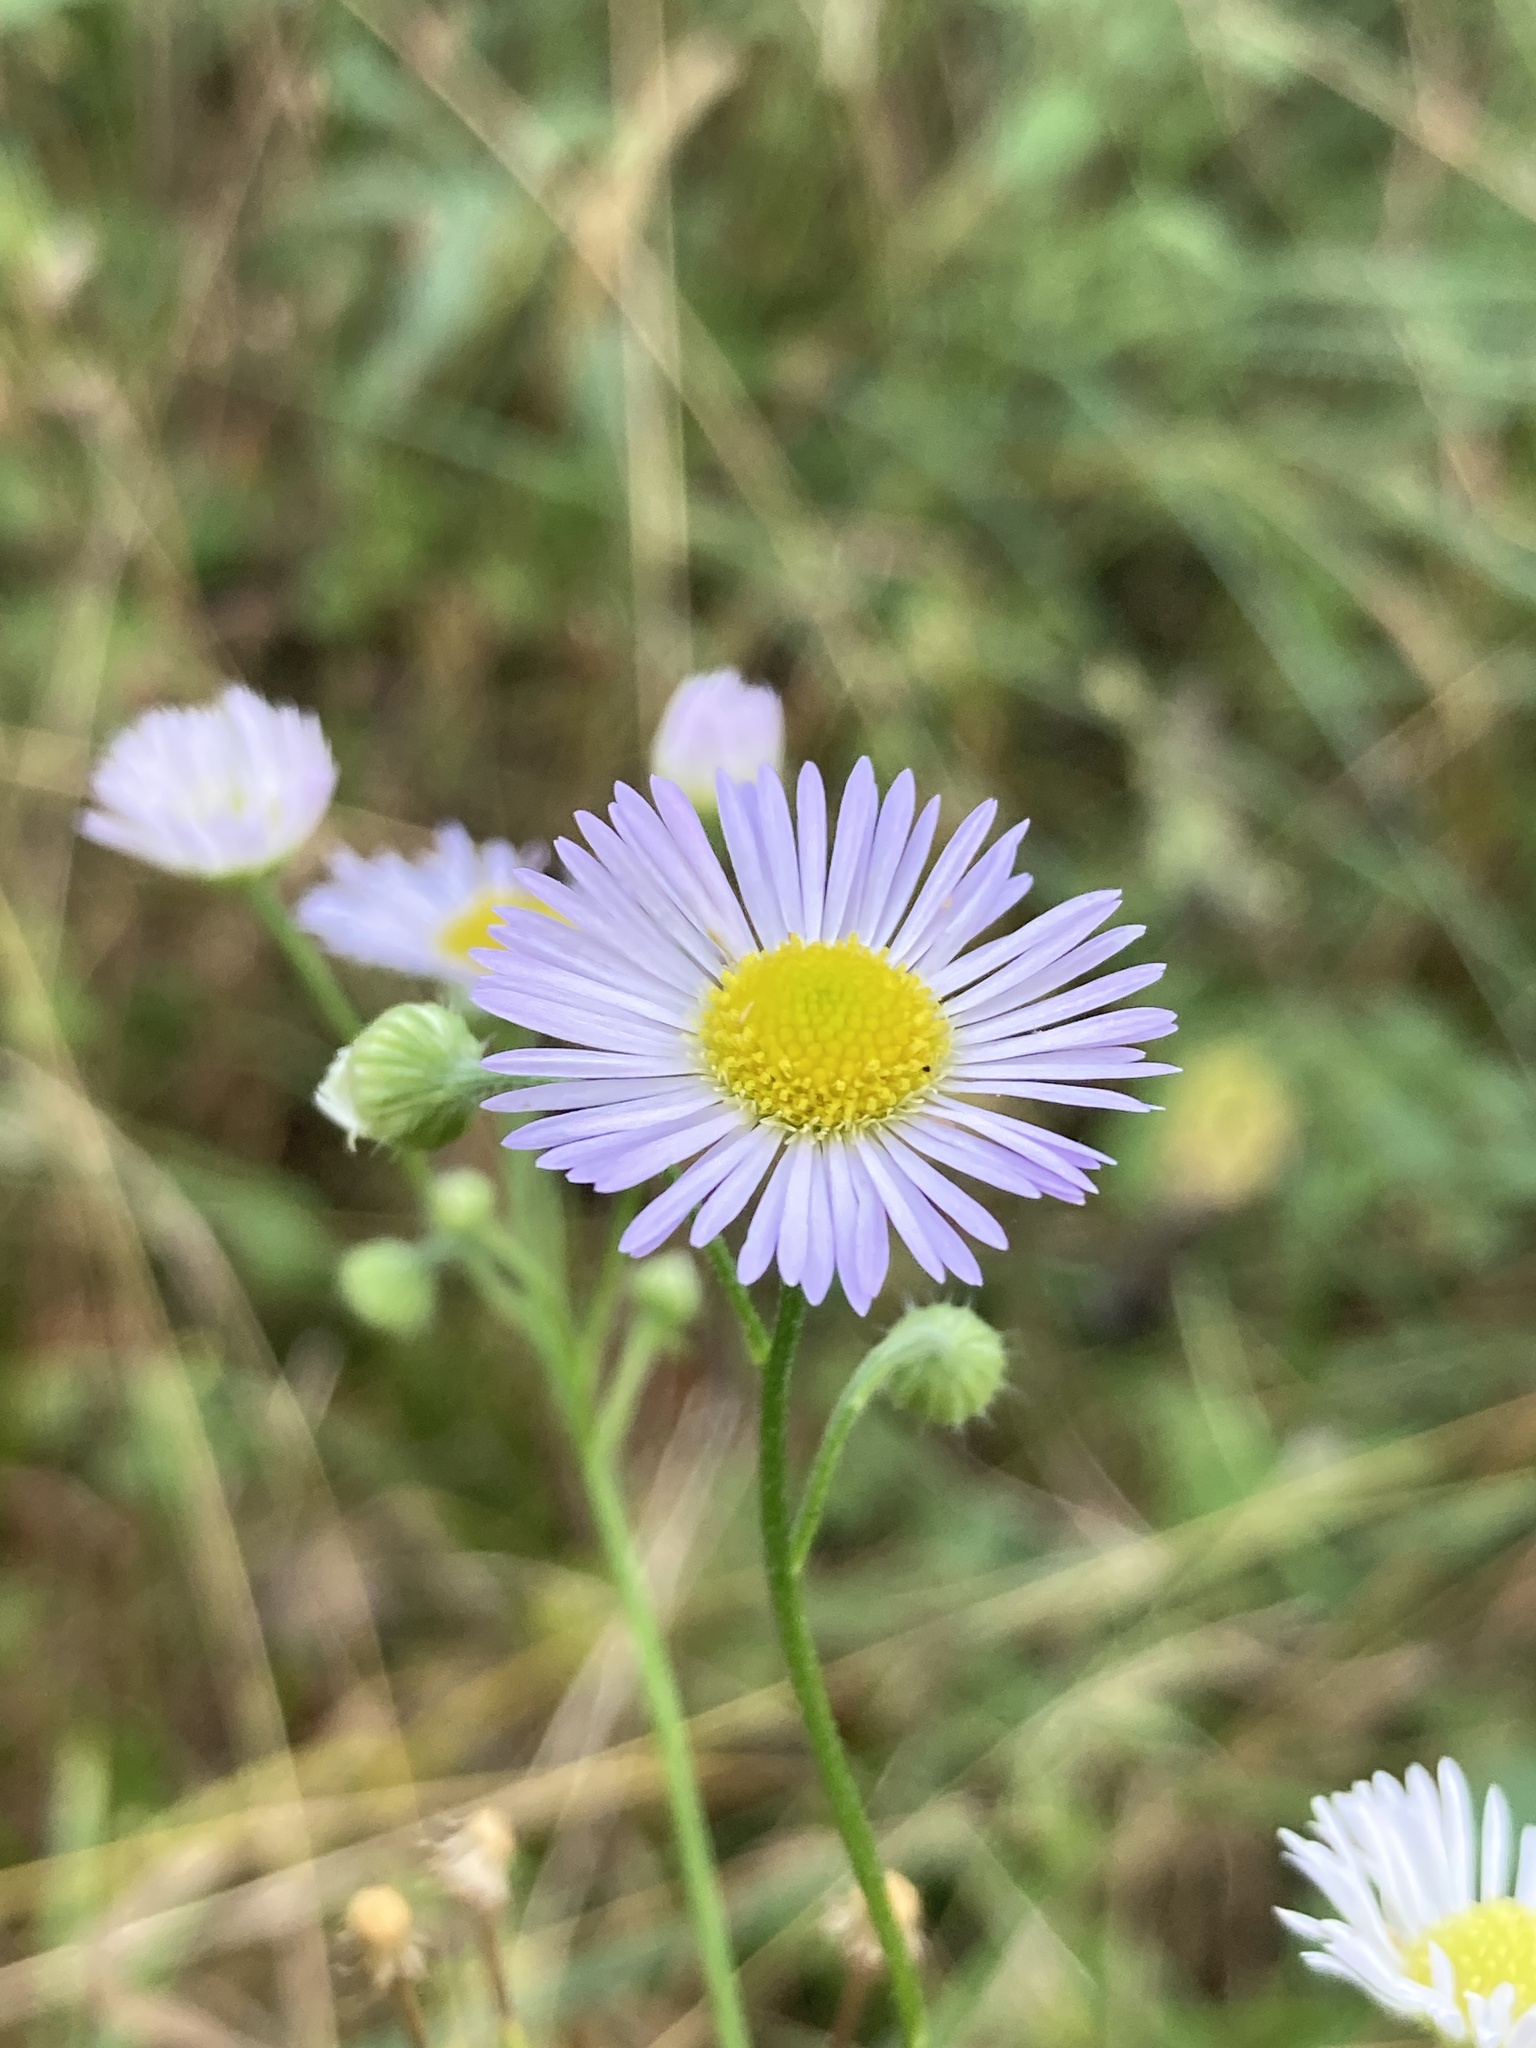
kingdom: Plantae
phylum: Tracheophyta
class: Magnoliopsida
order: Asterales
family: Asteraceae
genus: Erigeron
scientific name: Erigeron annuus
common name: Tall fleabane
